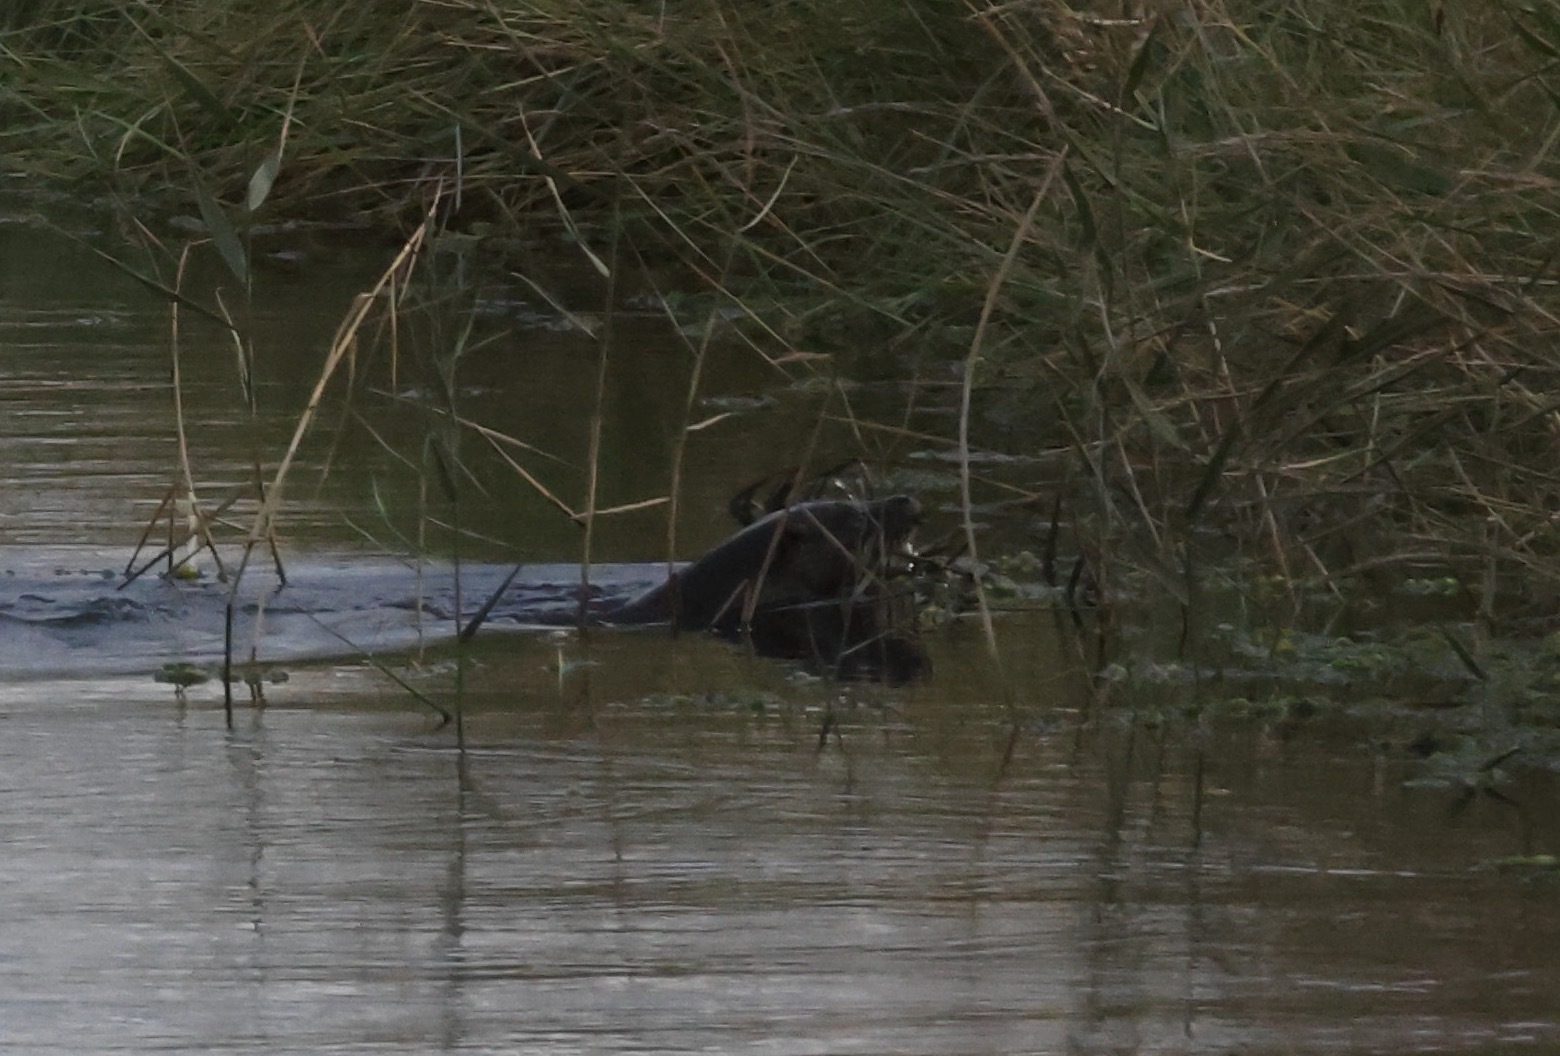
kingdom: Animalia
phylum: Chordata
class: Mammalia
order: Carnivora
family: Mustelidae
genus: Lutra
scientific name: Lutra lutra
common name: European otter
